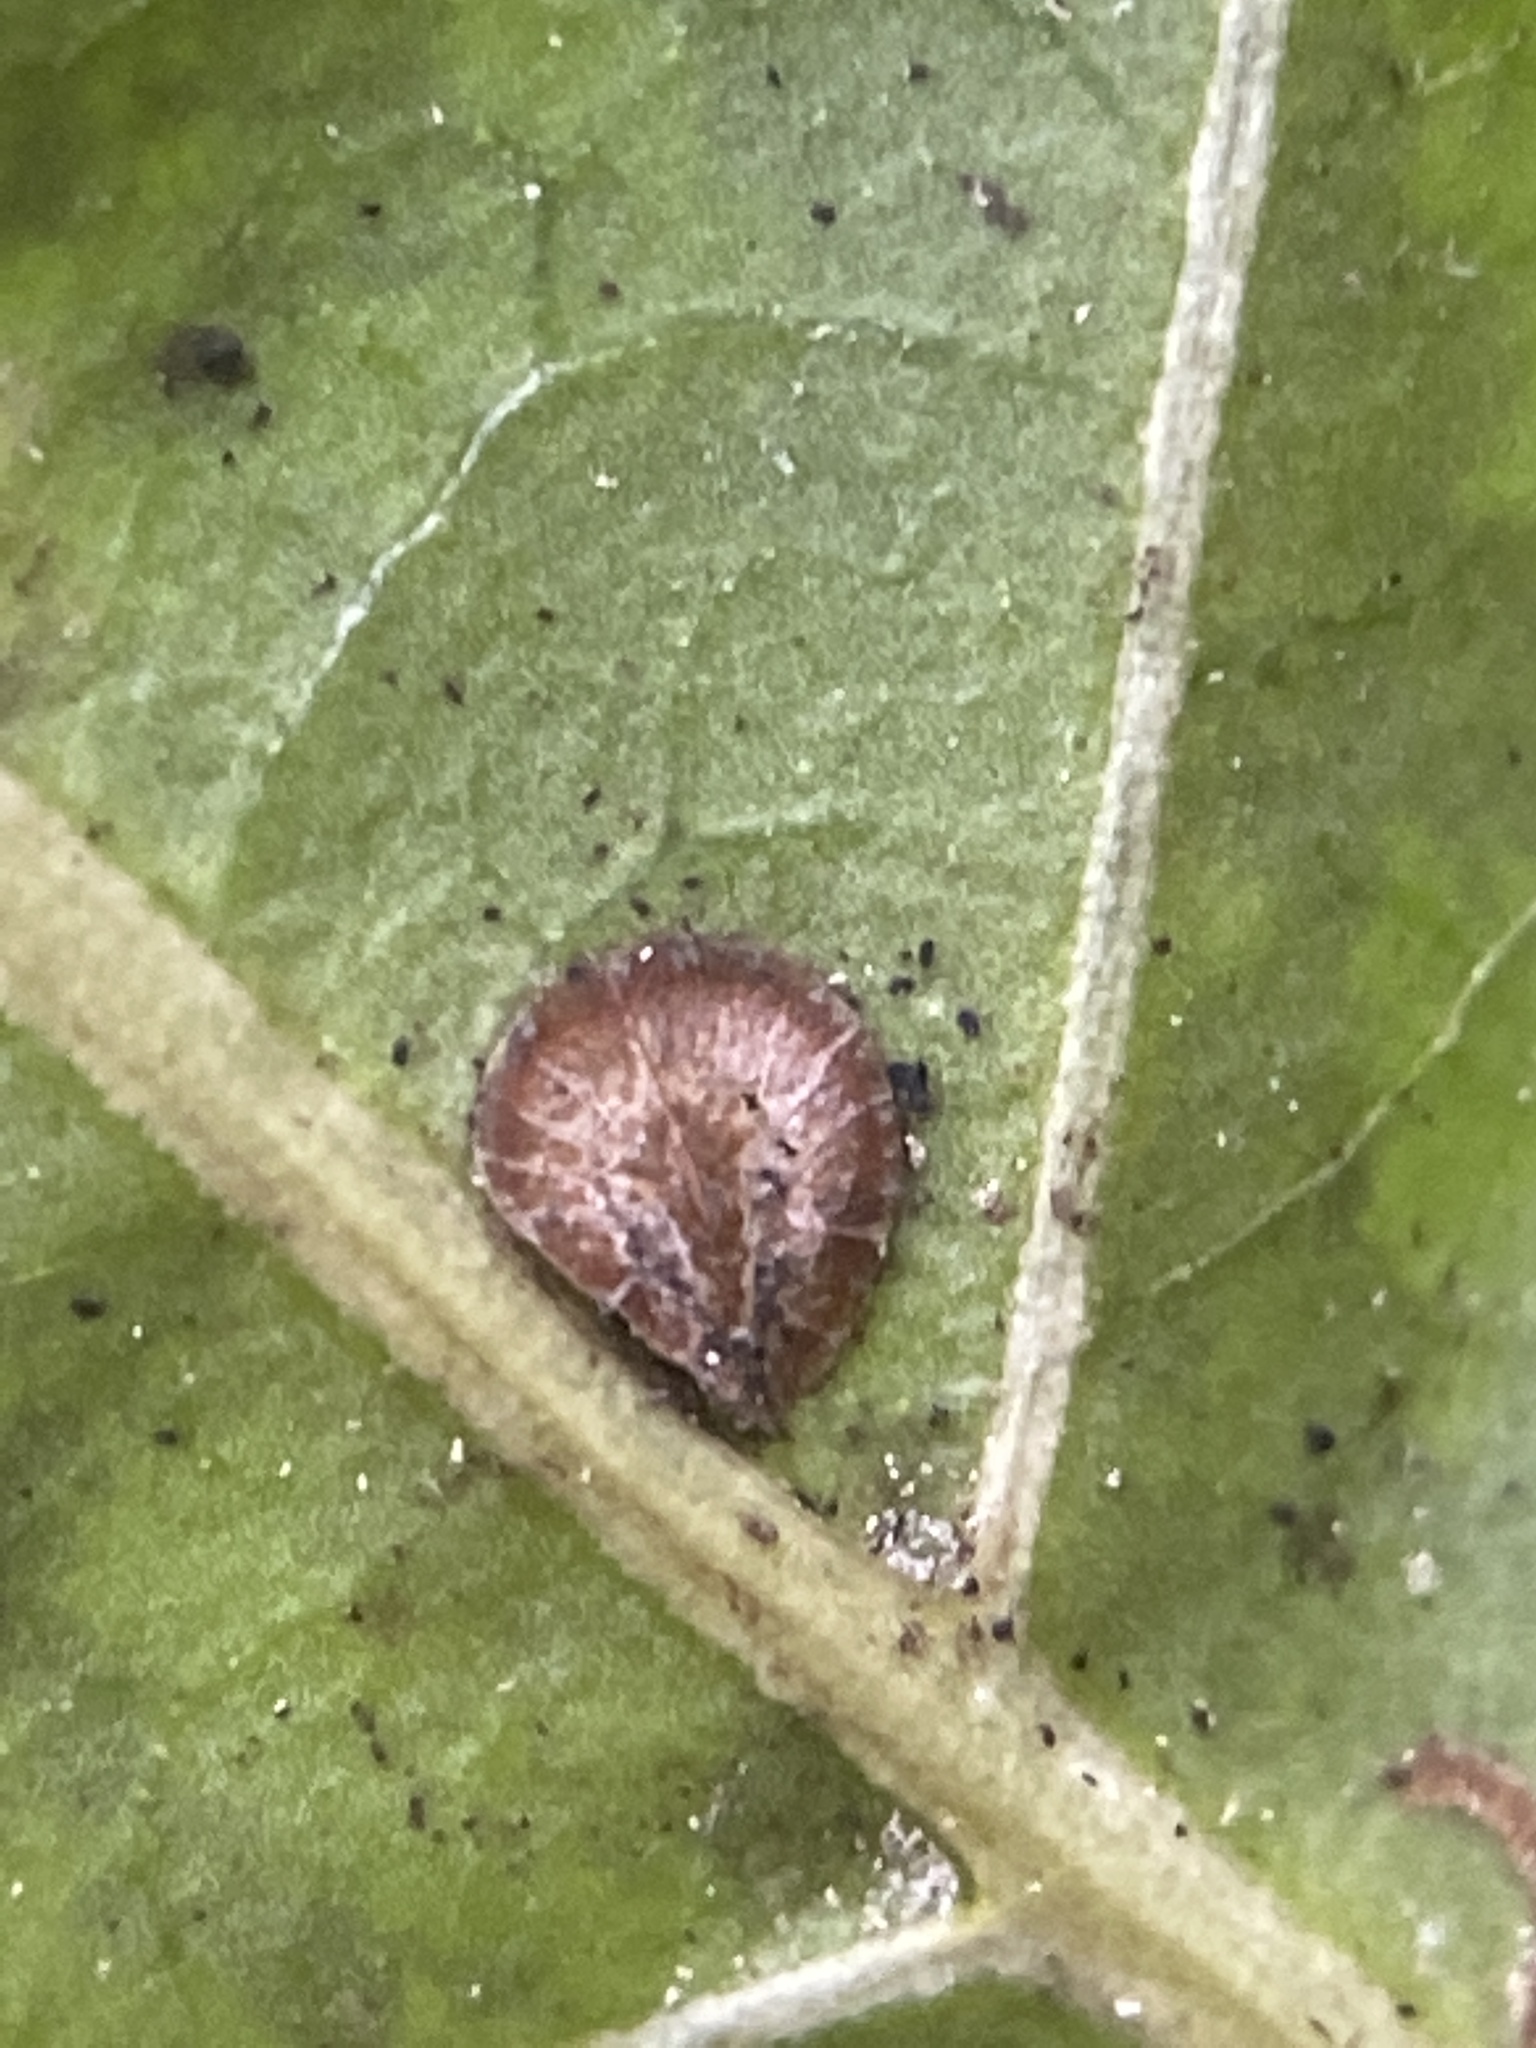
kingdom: Animalia
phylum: Arthropoda
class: Insecta
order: Hemiptera
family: Coccidae
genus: Protopulvinaria
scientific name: Protopulvinaria pyriformis
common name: Pyriform scale
